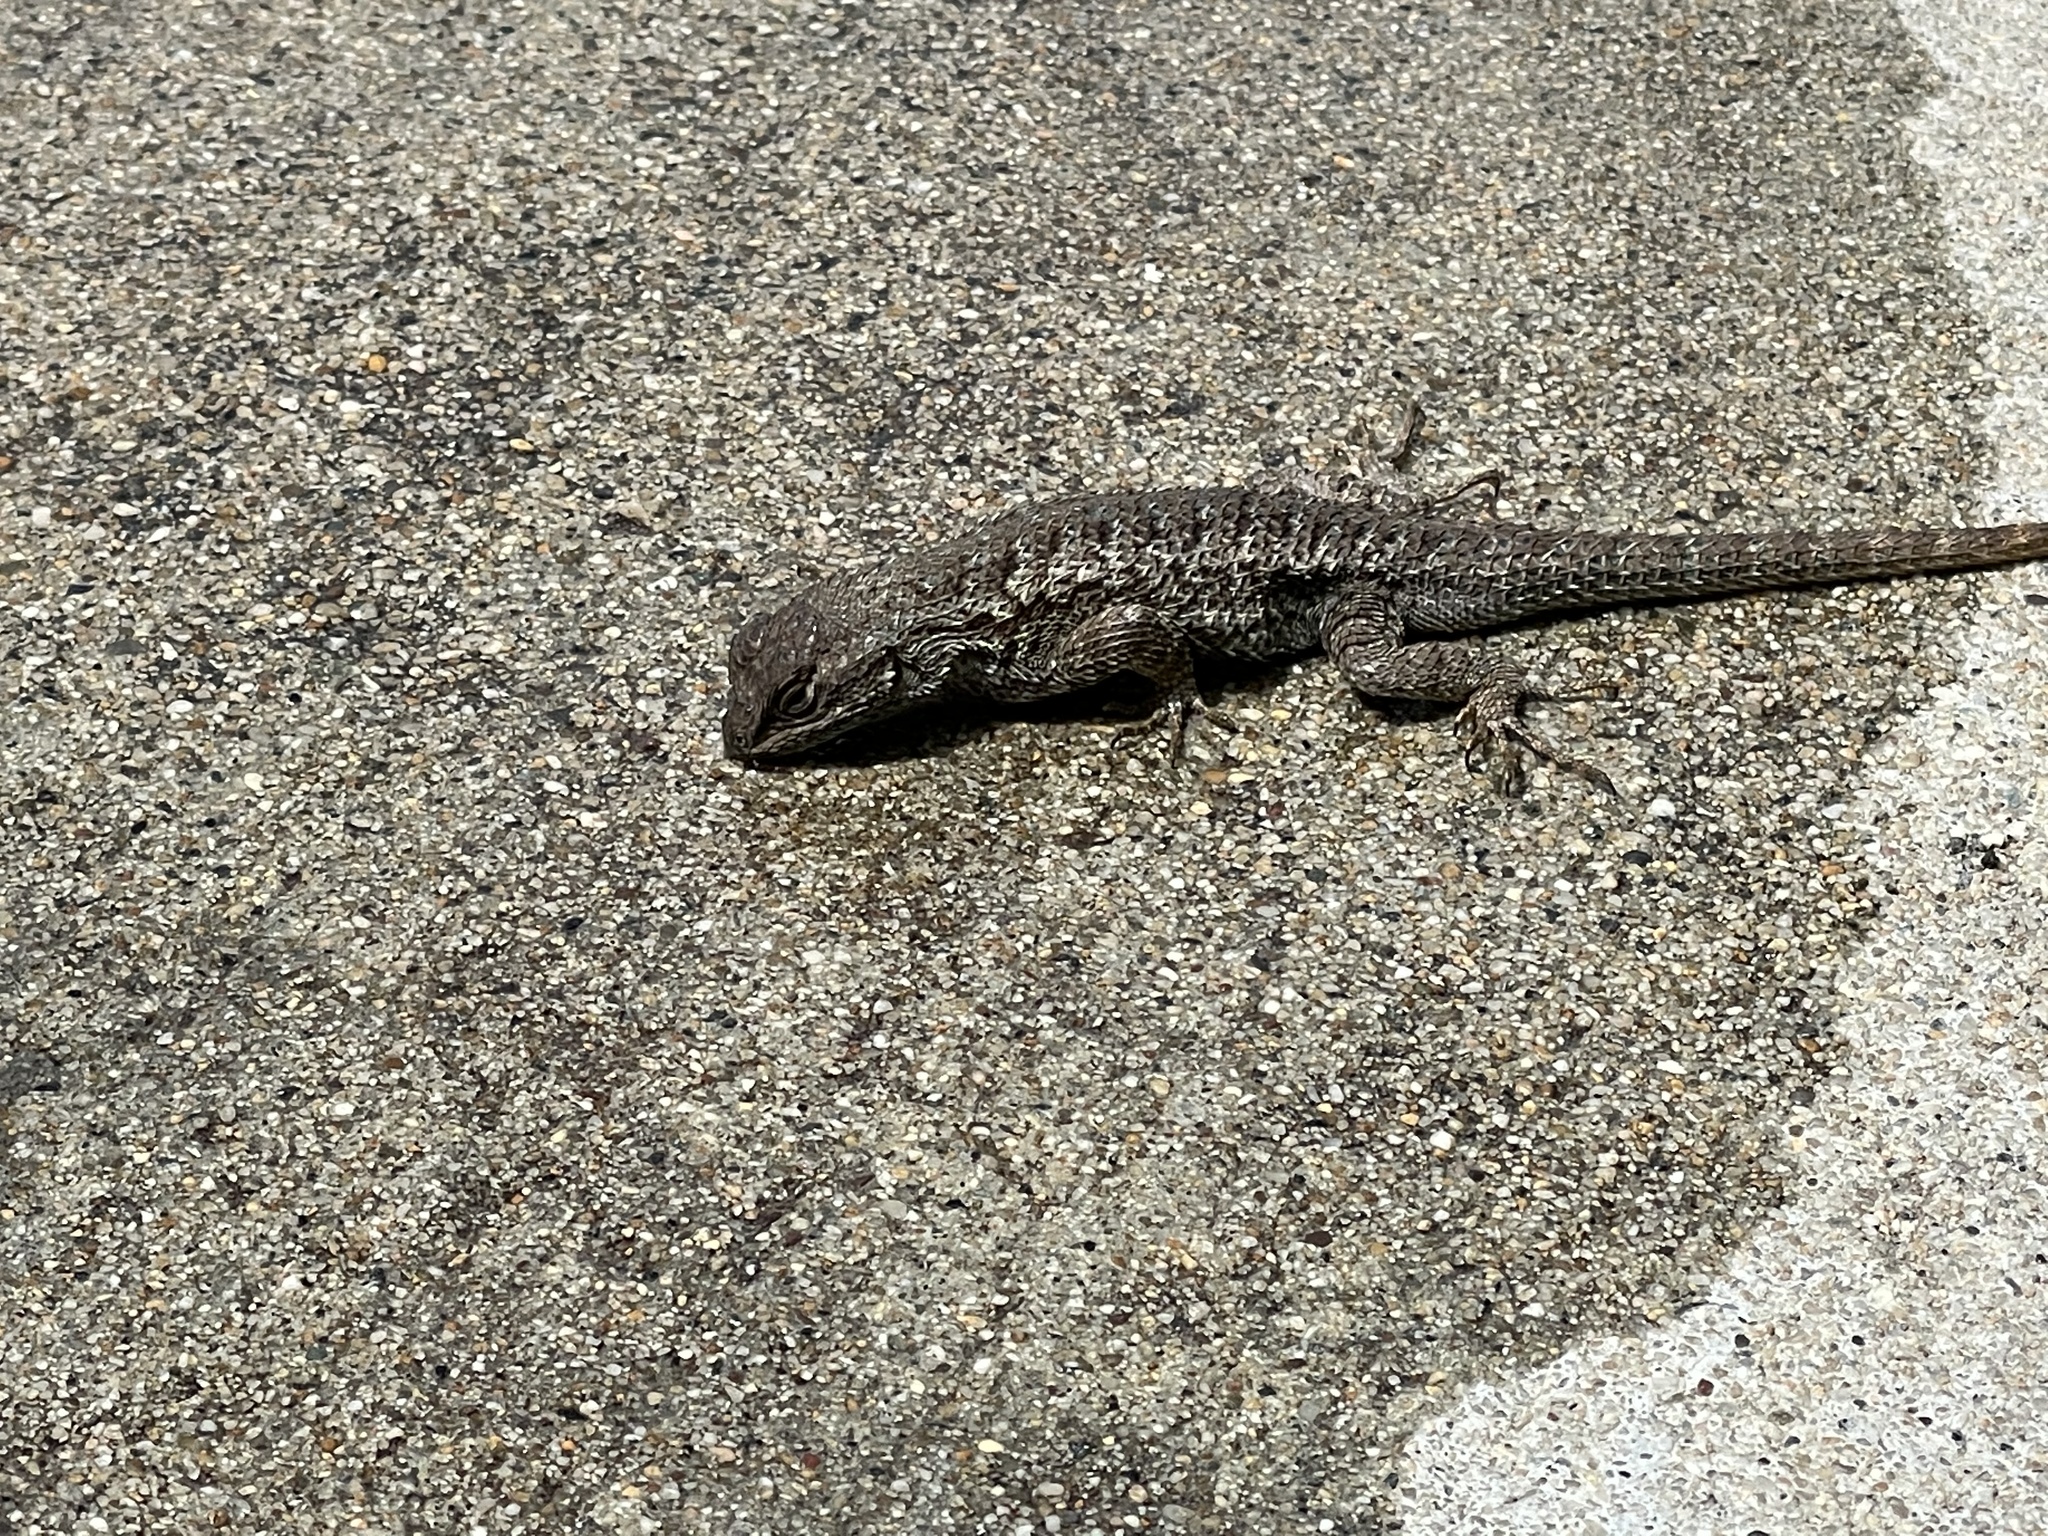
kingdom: Animalia
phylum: Chordata
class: Squamata
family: Phrynosomatidae
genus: Sceloporus
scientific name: Sceloporus occidentalis
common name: Western fence lizard
